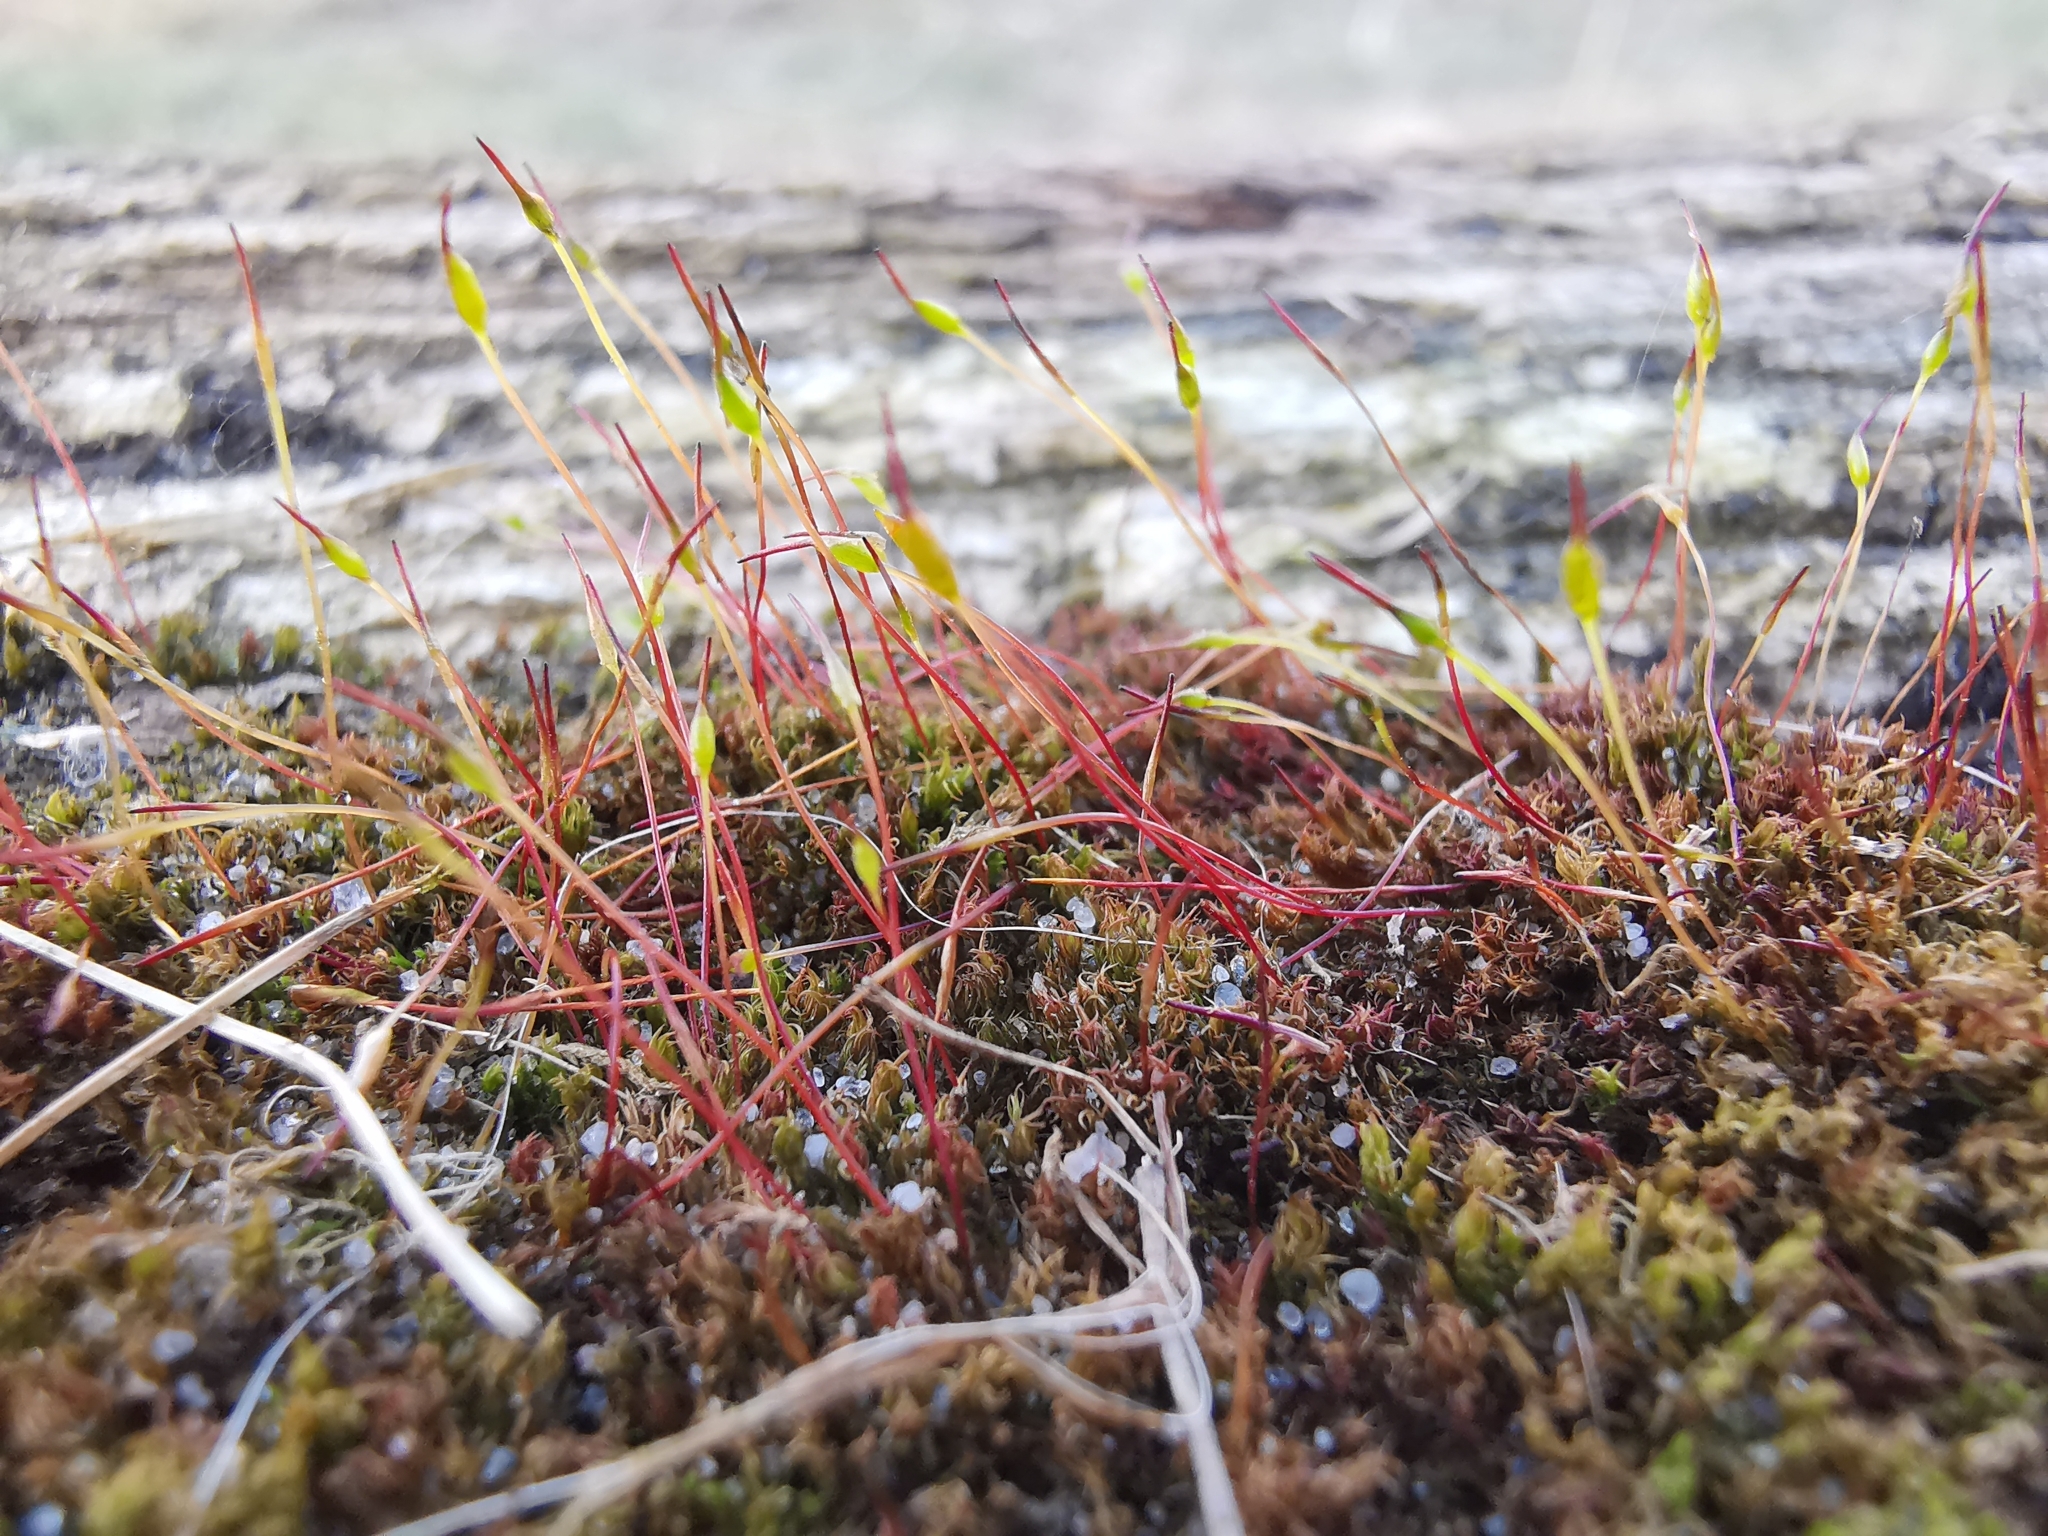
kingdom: Plantae
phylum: Bryophyta
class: Bryopsida
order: Dicranales
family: Ditrichaceae
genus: Ceratodon
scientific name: Ceratodon purpureus
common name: Redshank
